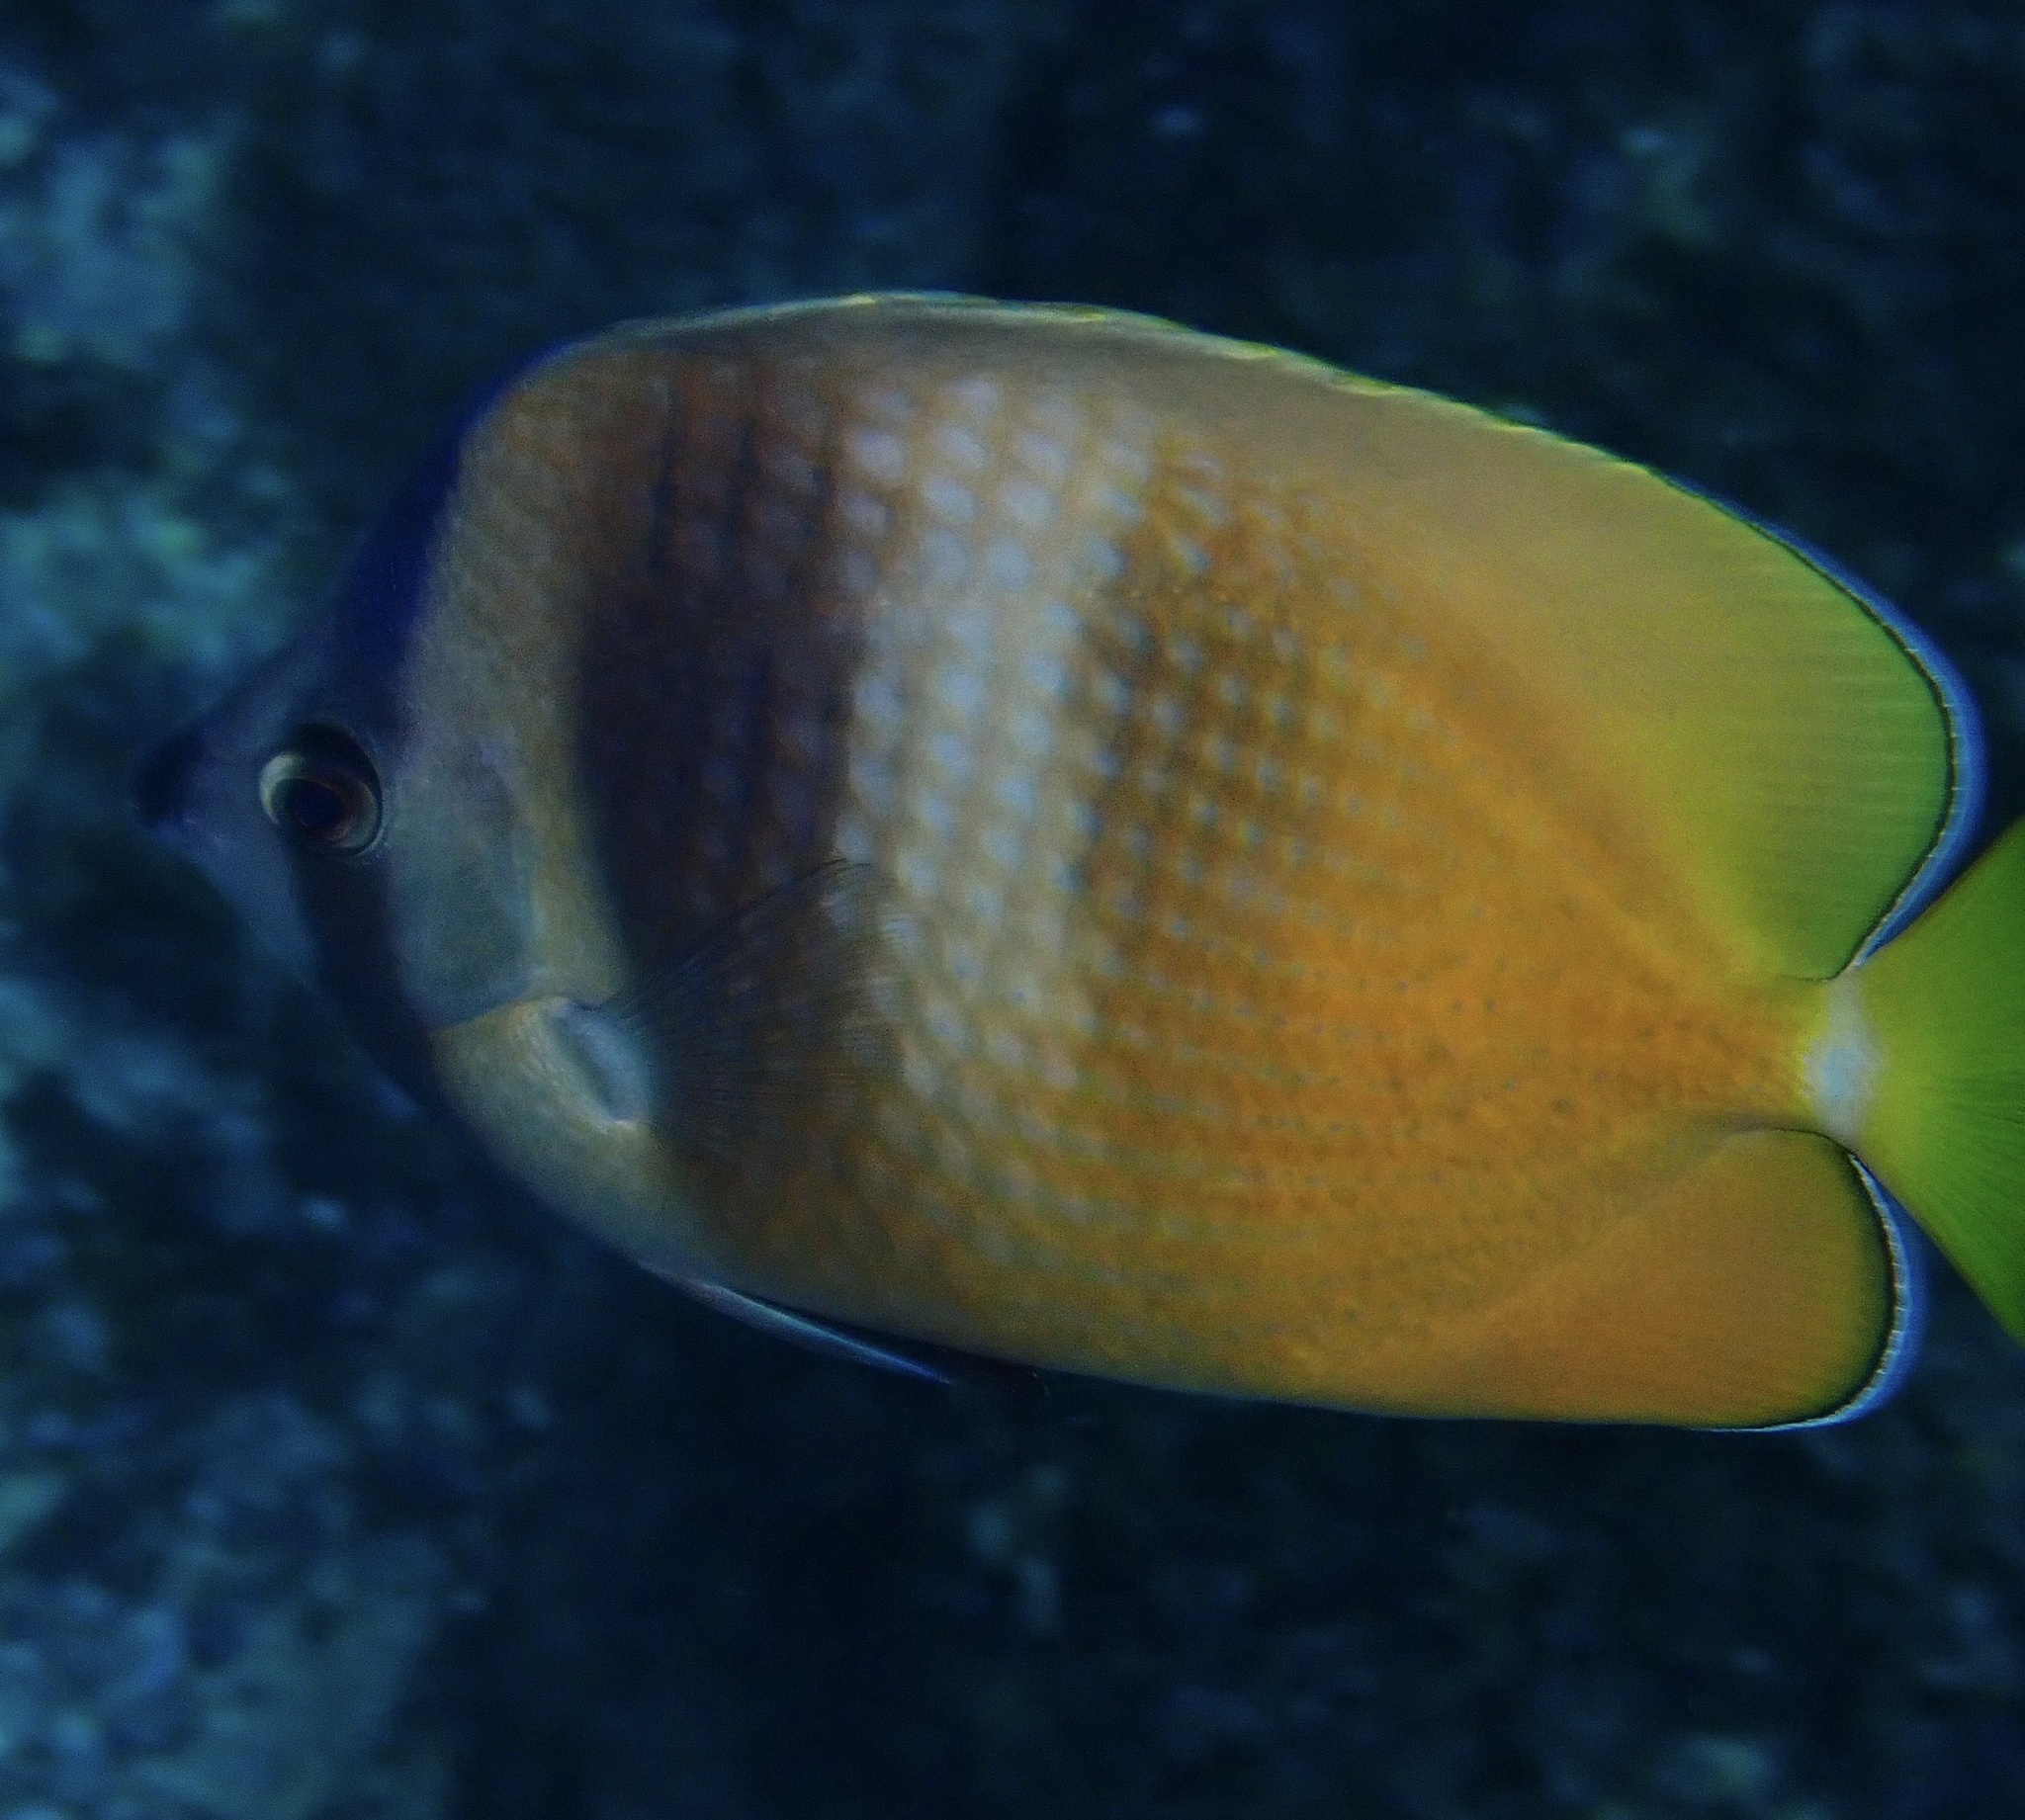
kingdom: Animalia
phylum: Chordata
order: Perciformes
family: Chaetodontidae
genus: Chaetodon
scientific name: Chaetodon kleinii
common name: Klein's butterflyfish
